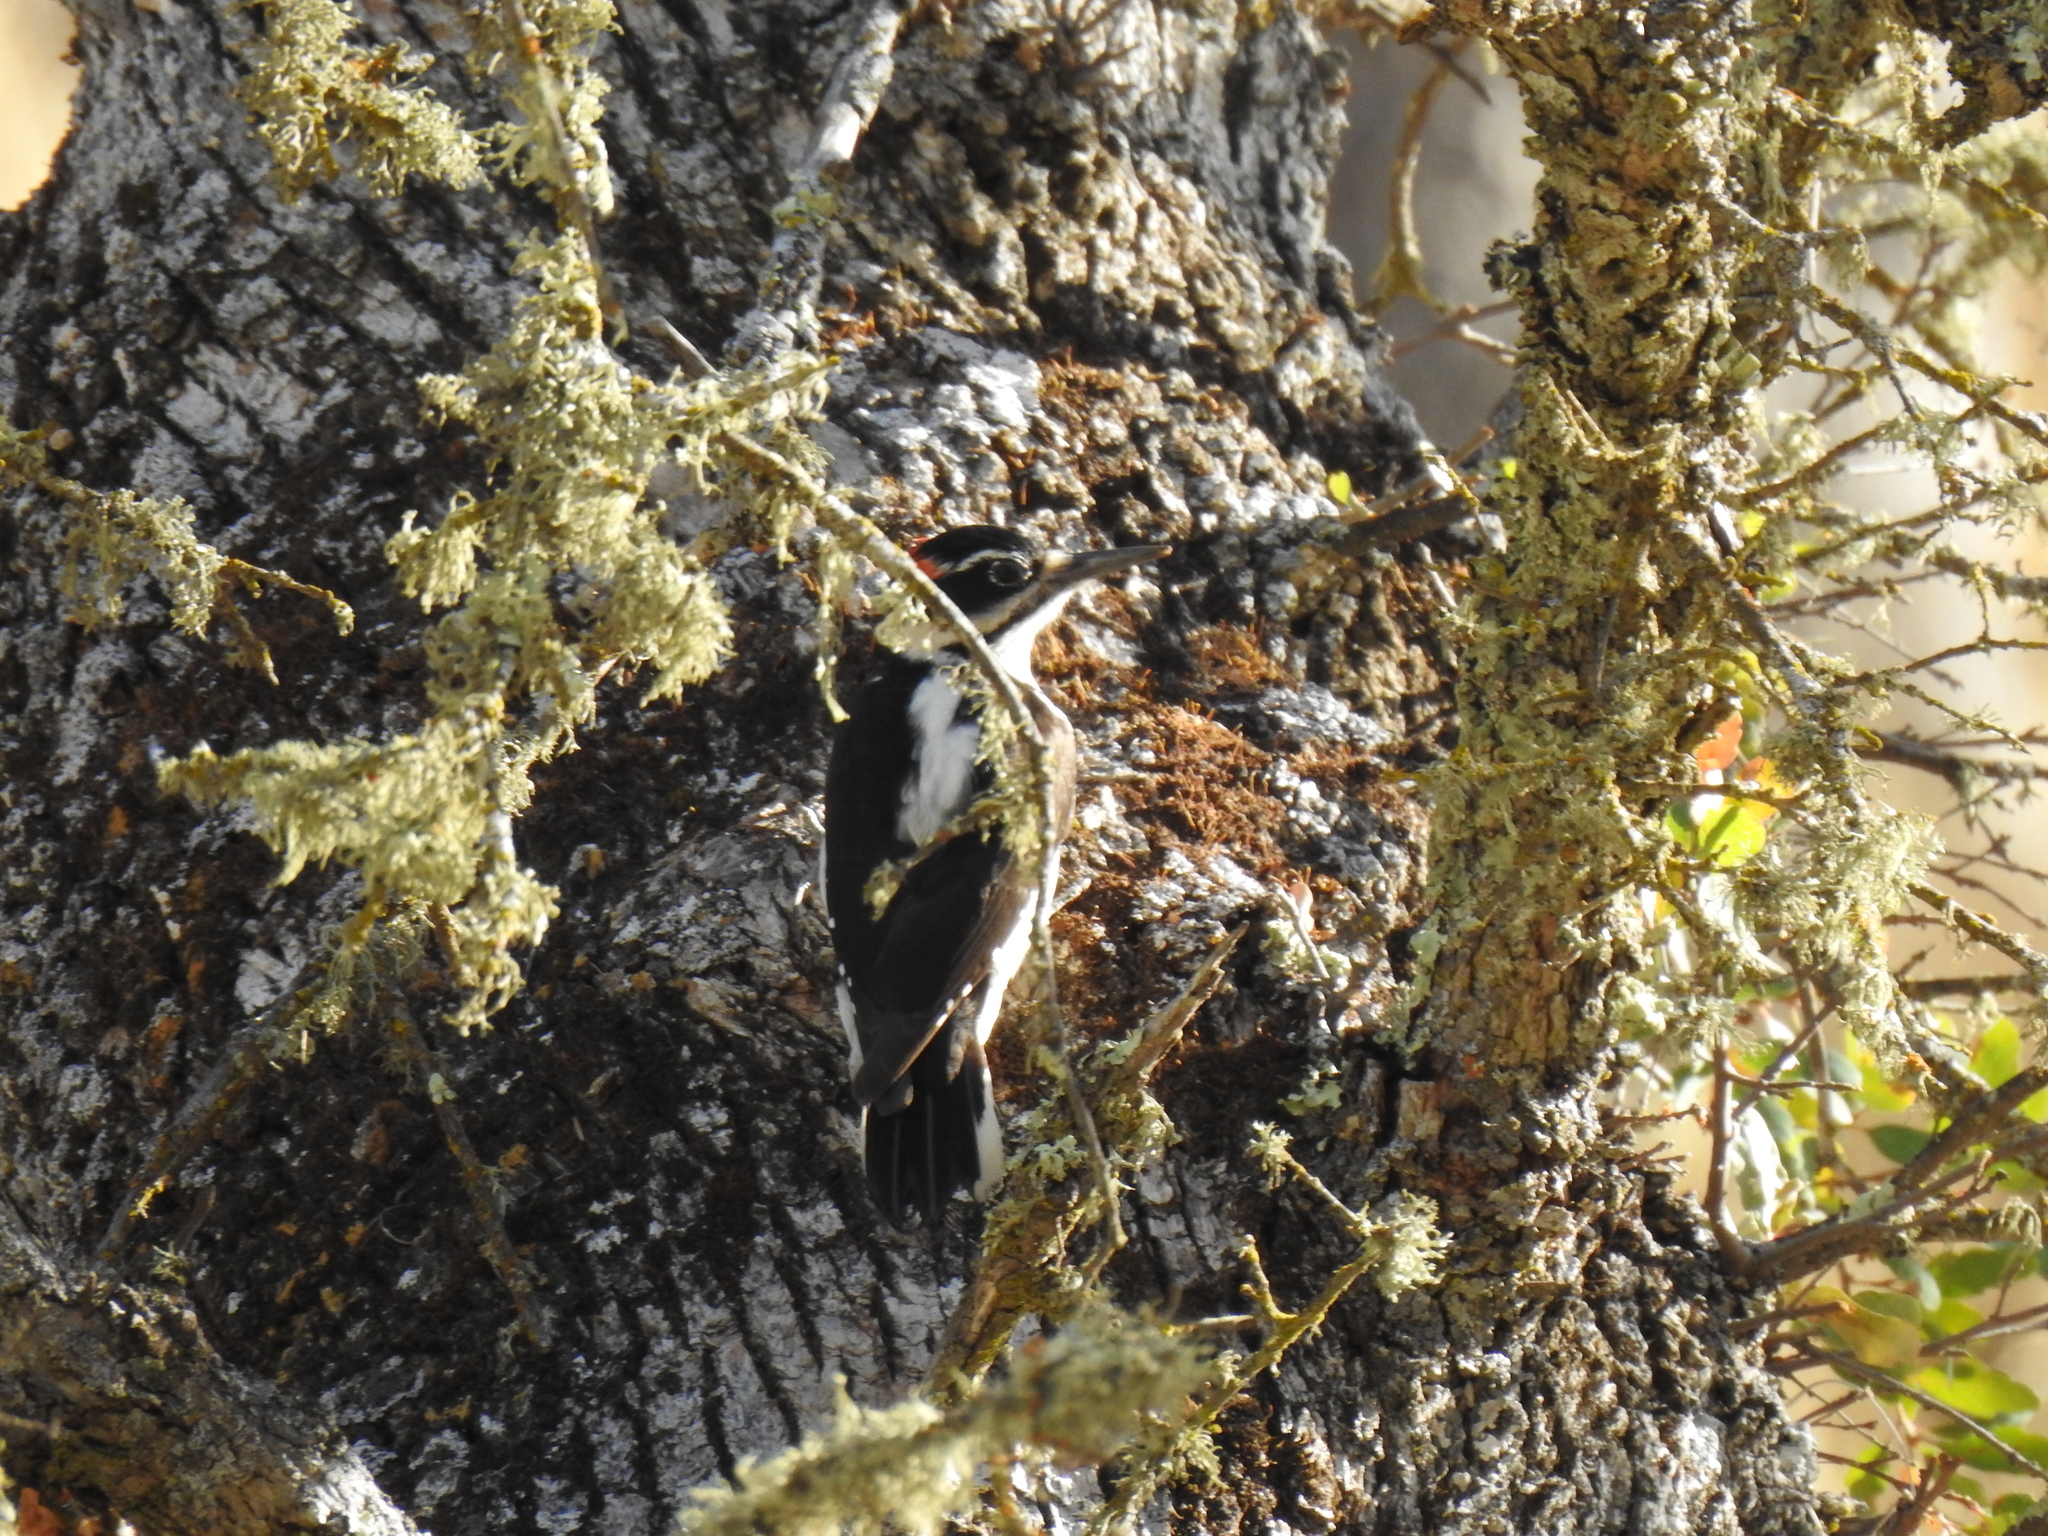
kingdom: Animalia
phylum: Chordata
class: Aves
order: Piciformes
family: Picidae
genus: Leuconotopicus
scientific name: Leuconotopicus villosus
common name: Hairy woodpecker
